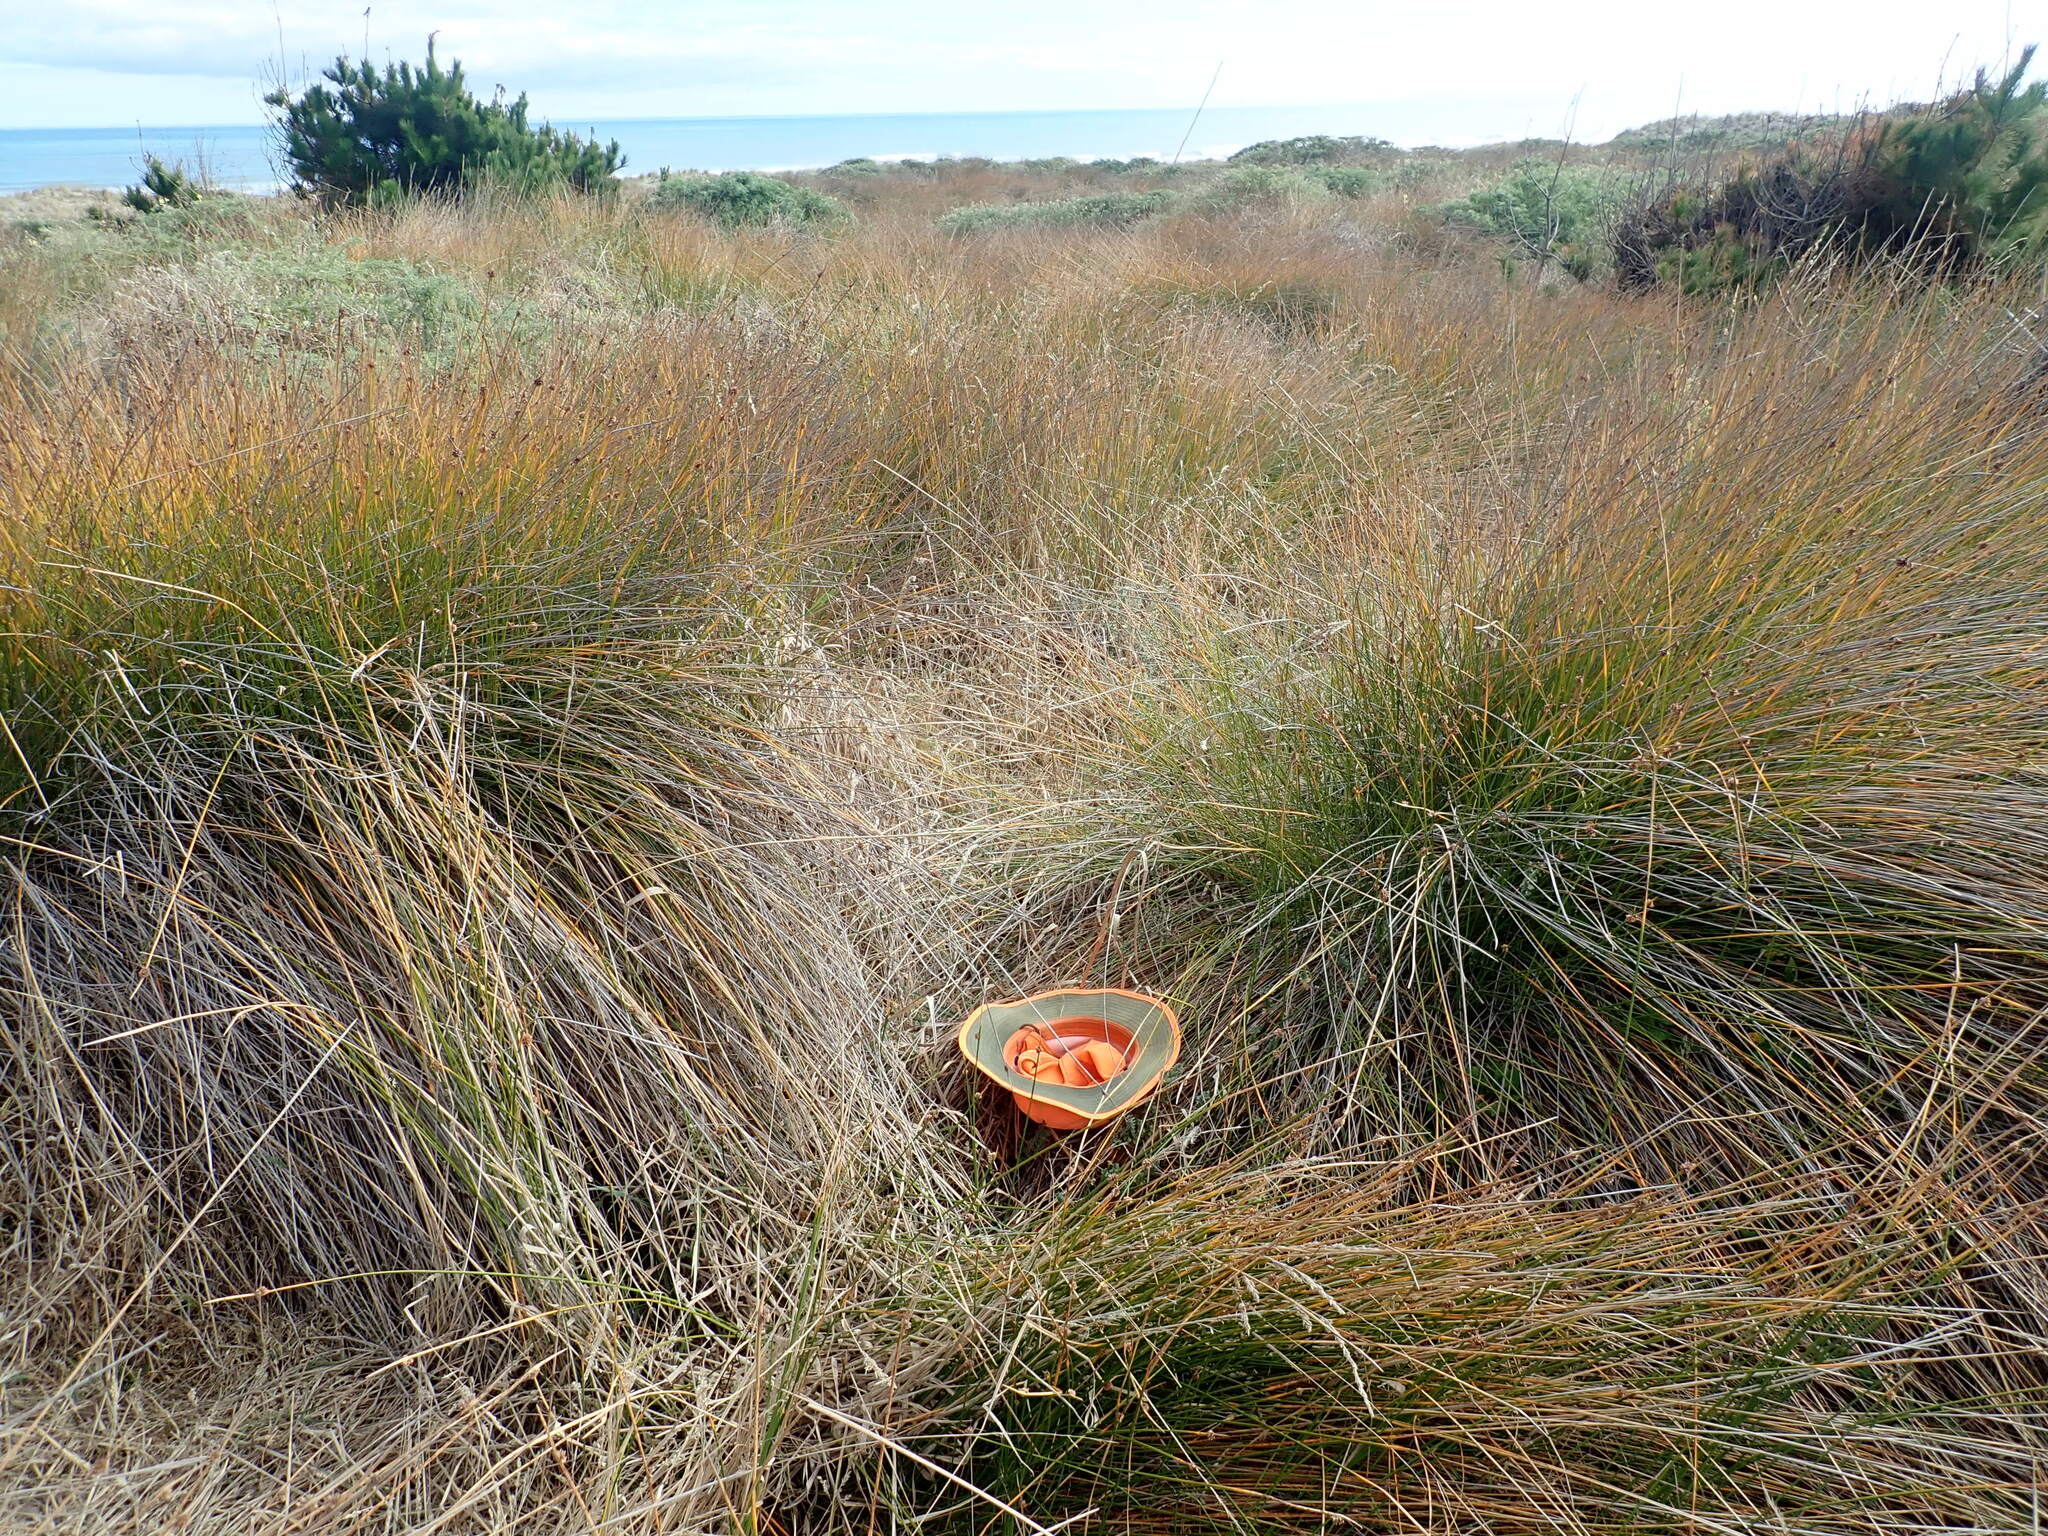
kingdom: Plantae
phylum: Tracheophyta
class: Pinopsida
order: Pinales
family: Pinaceae
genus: Pinus
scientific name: Pinus radiata
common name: Monterey pine
